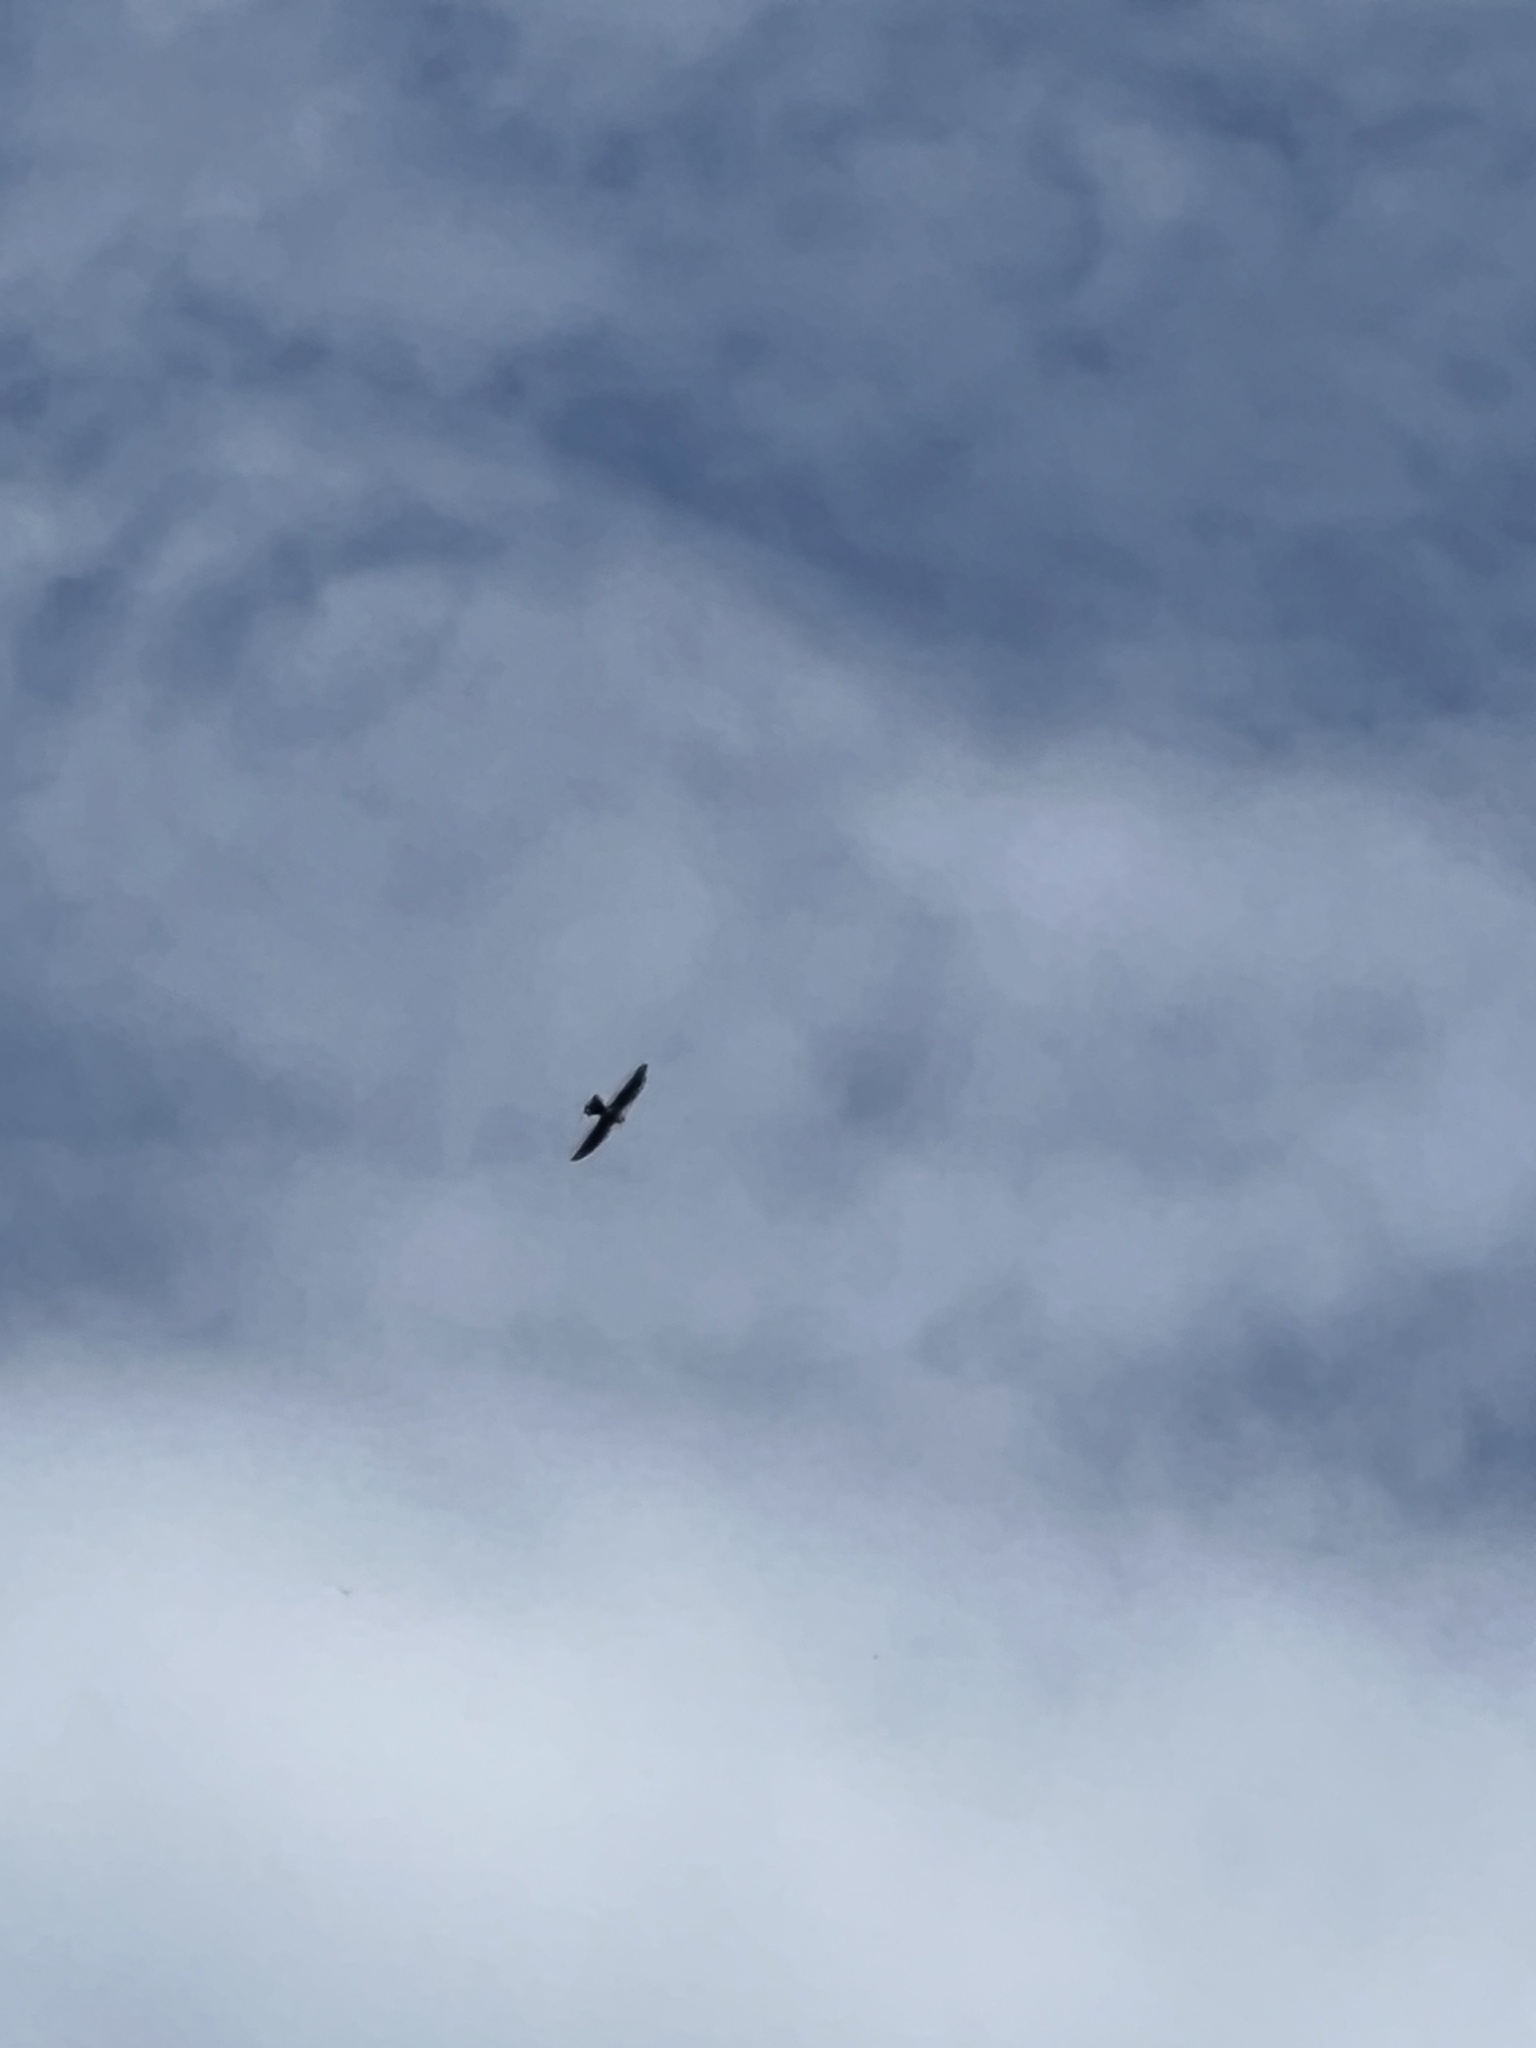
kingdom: Animalia
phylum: Chordata
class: Aves
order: Accipitriformes
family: Accipitridae
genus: Ictinia
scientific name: Ictinia mississippiensis
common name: Mississippi kite
